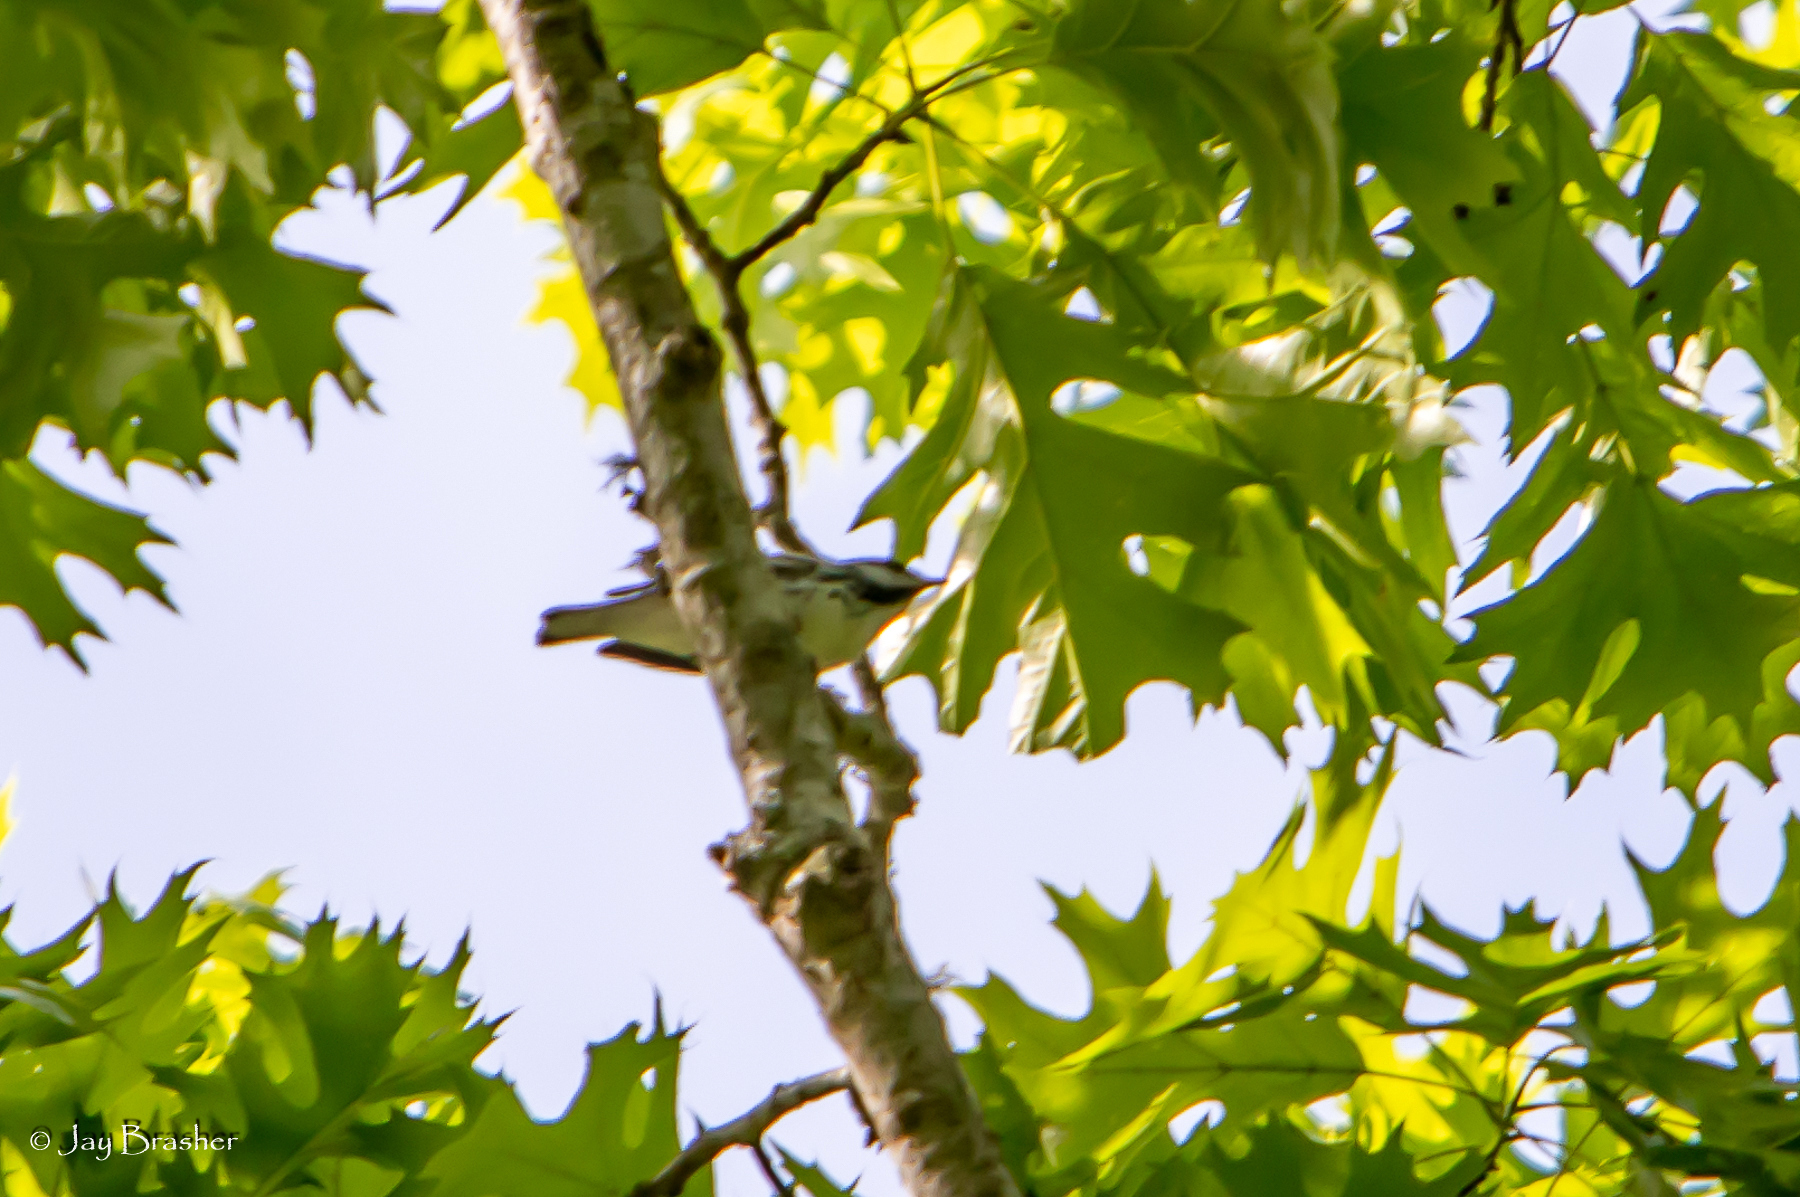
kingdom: Animalia
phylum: Chordata
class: Aves
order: Passeriformes
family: Parulidae
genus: Setophaga
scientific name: Setophaga striata
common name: Blackpoll warbler
